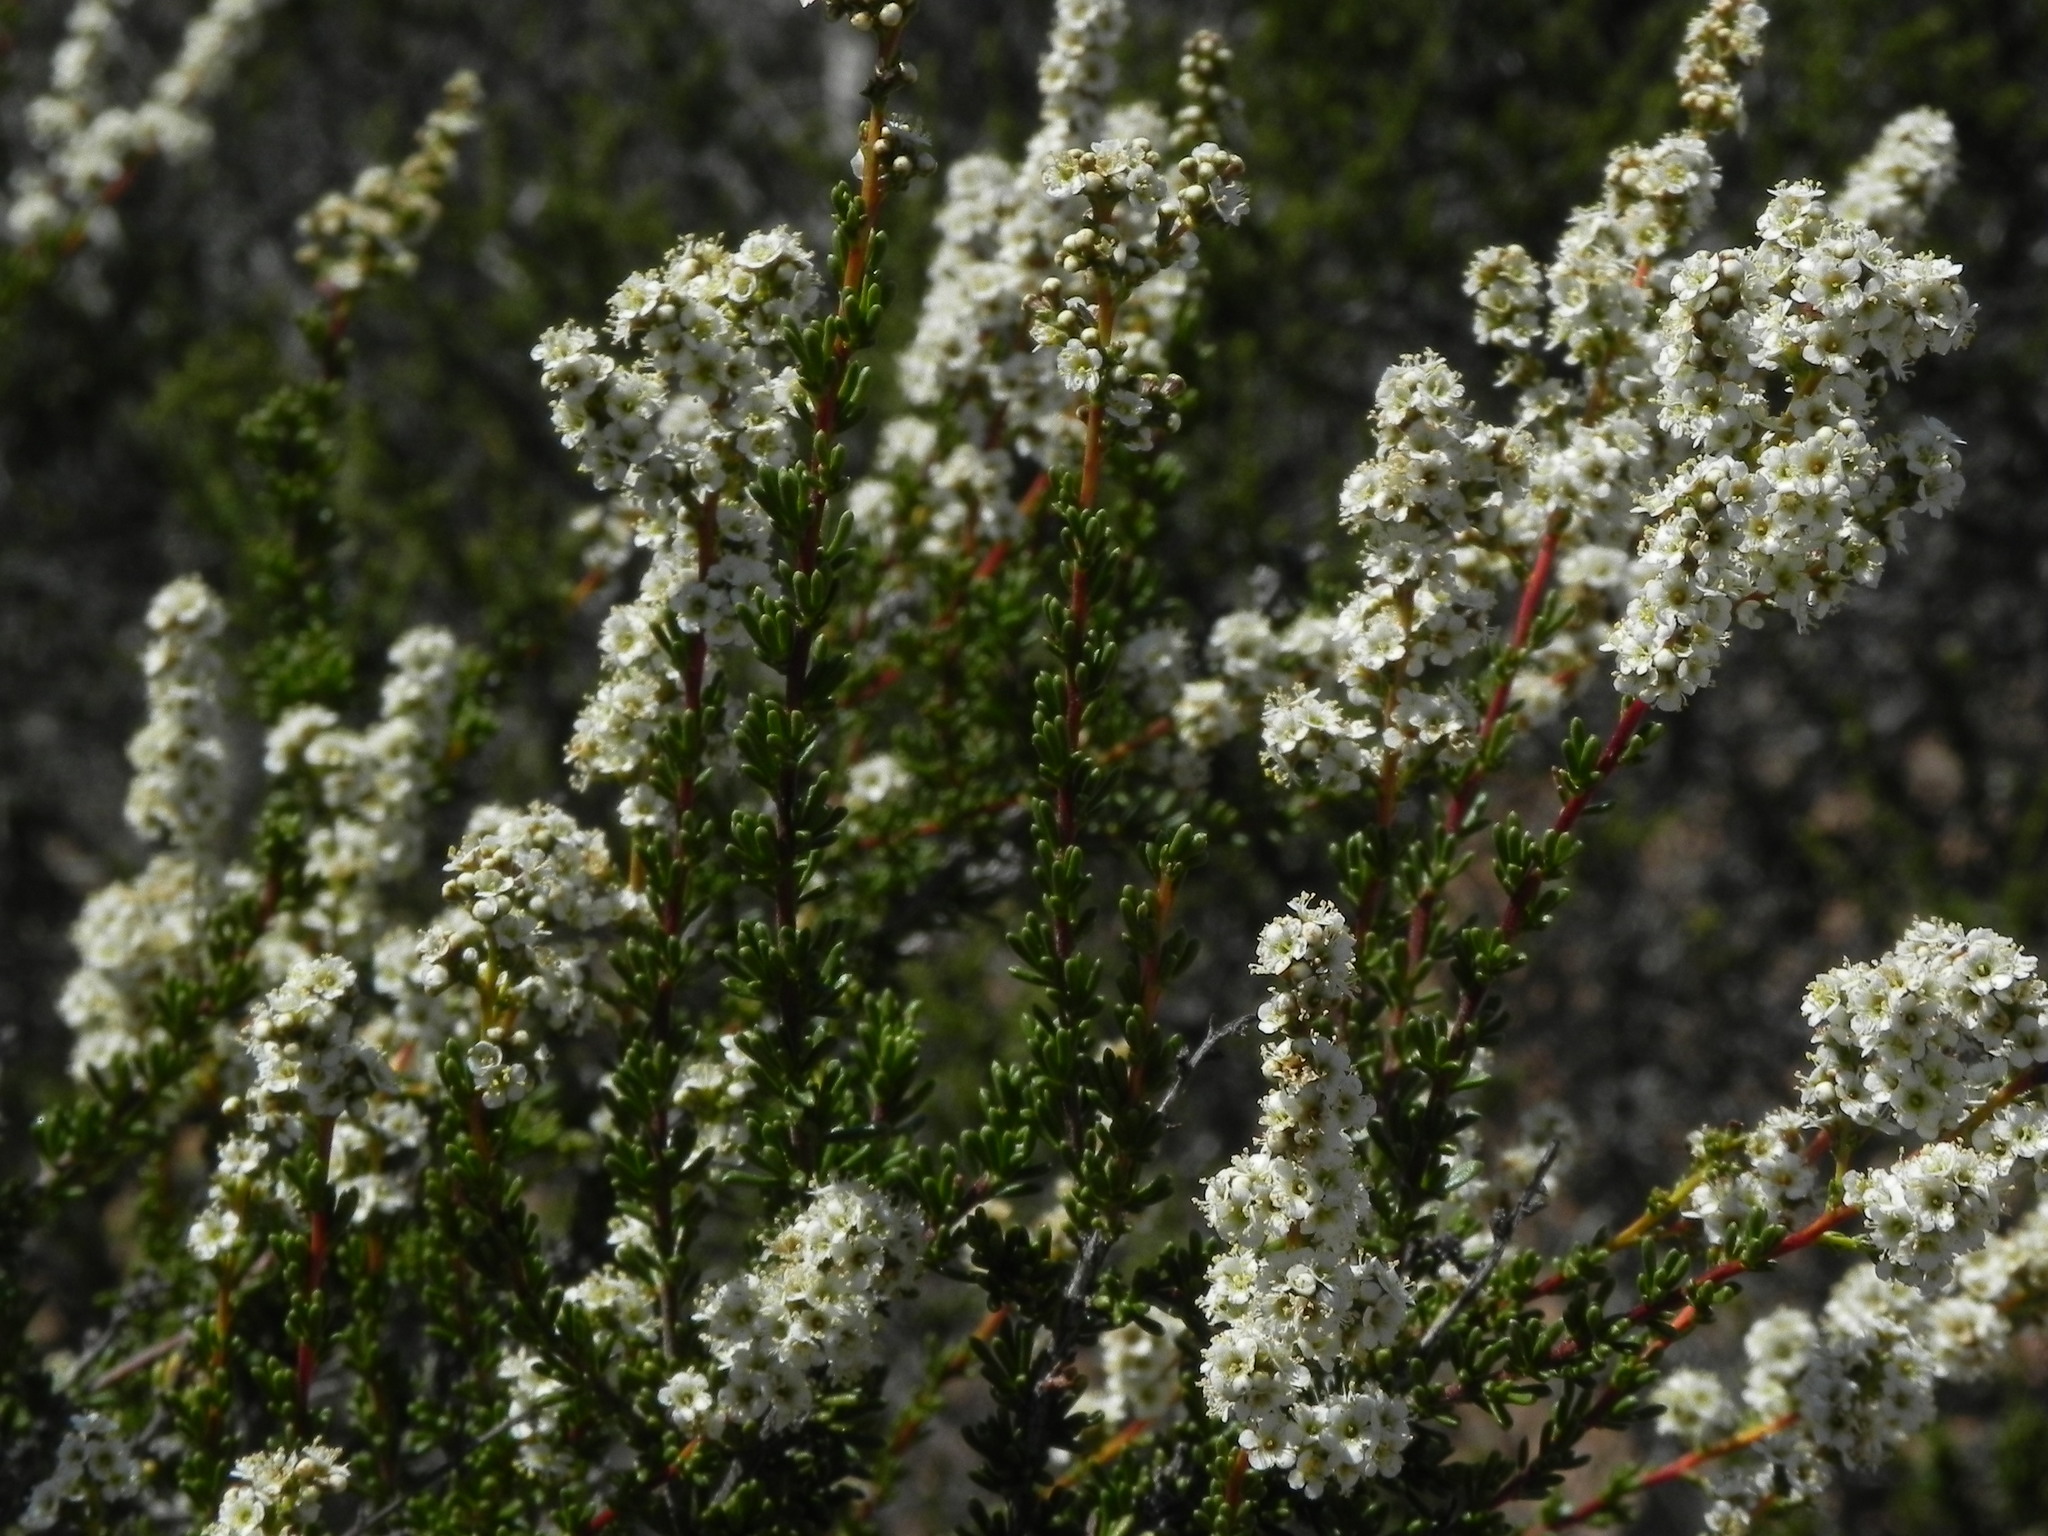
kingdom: Plantae
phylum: Tracheophyta
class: Magnoliopsida
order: Rosales
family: Rosaceae
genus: Adenostoma
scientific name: Adenostoma fasciculatum
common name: Chamise
